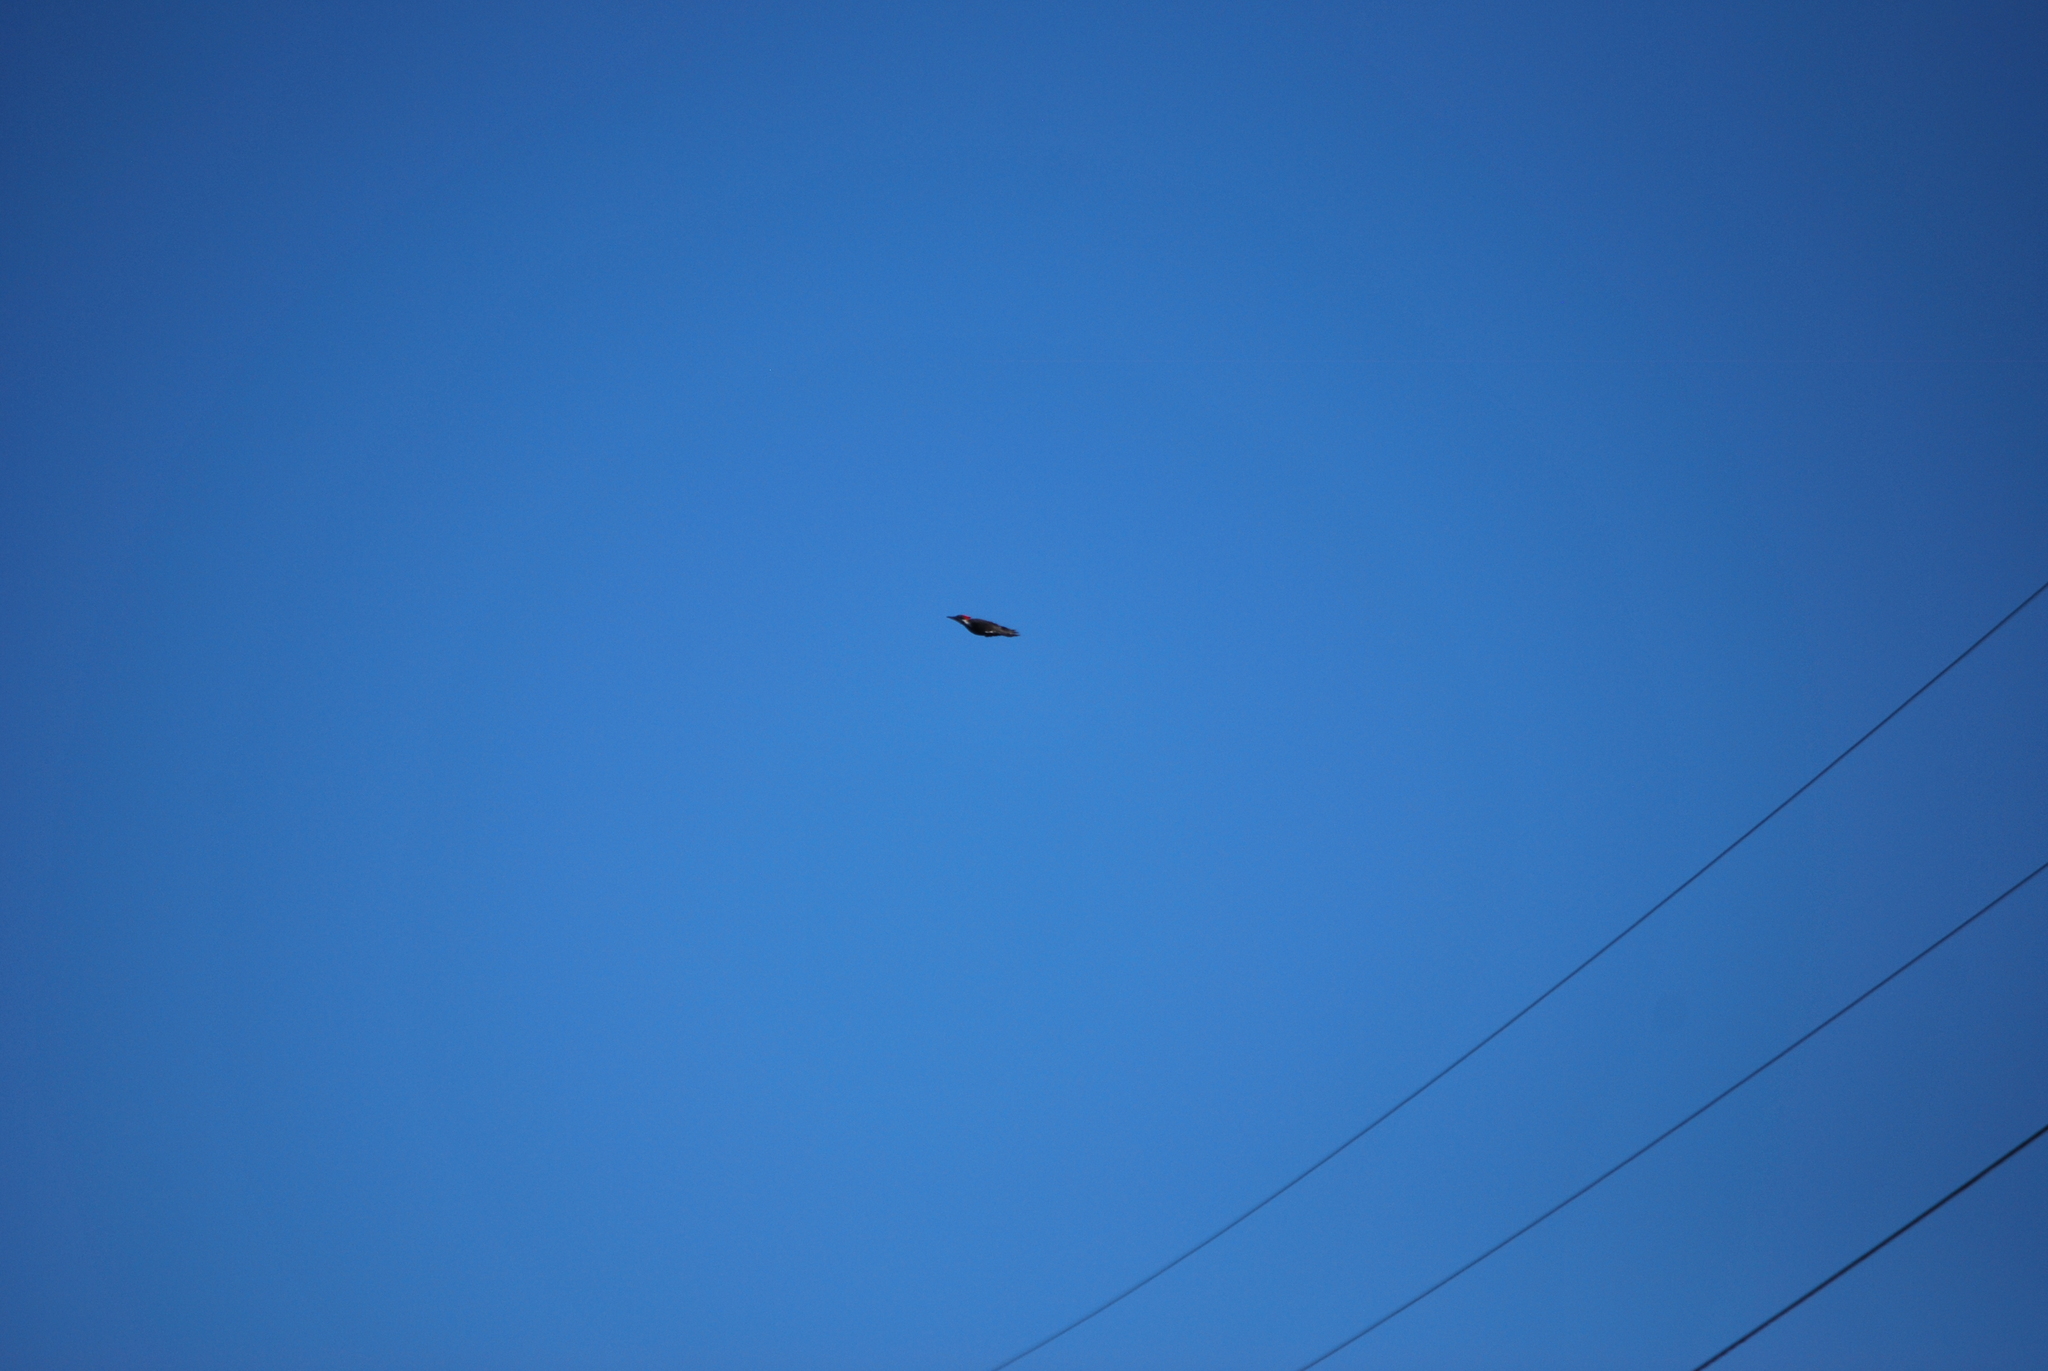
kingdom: Animalia
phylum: Chordata
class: Aves
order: Piciformes
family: Picidae
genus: Dryocopus
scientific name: Dryocopus pileatus
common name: Pileated woodpecker
